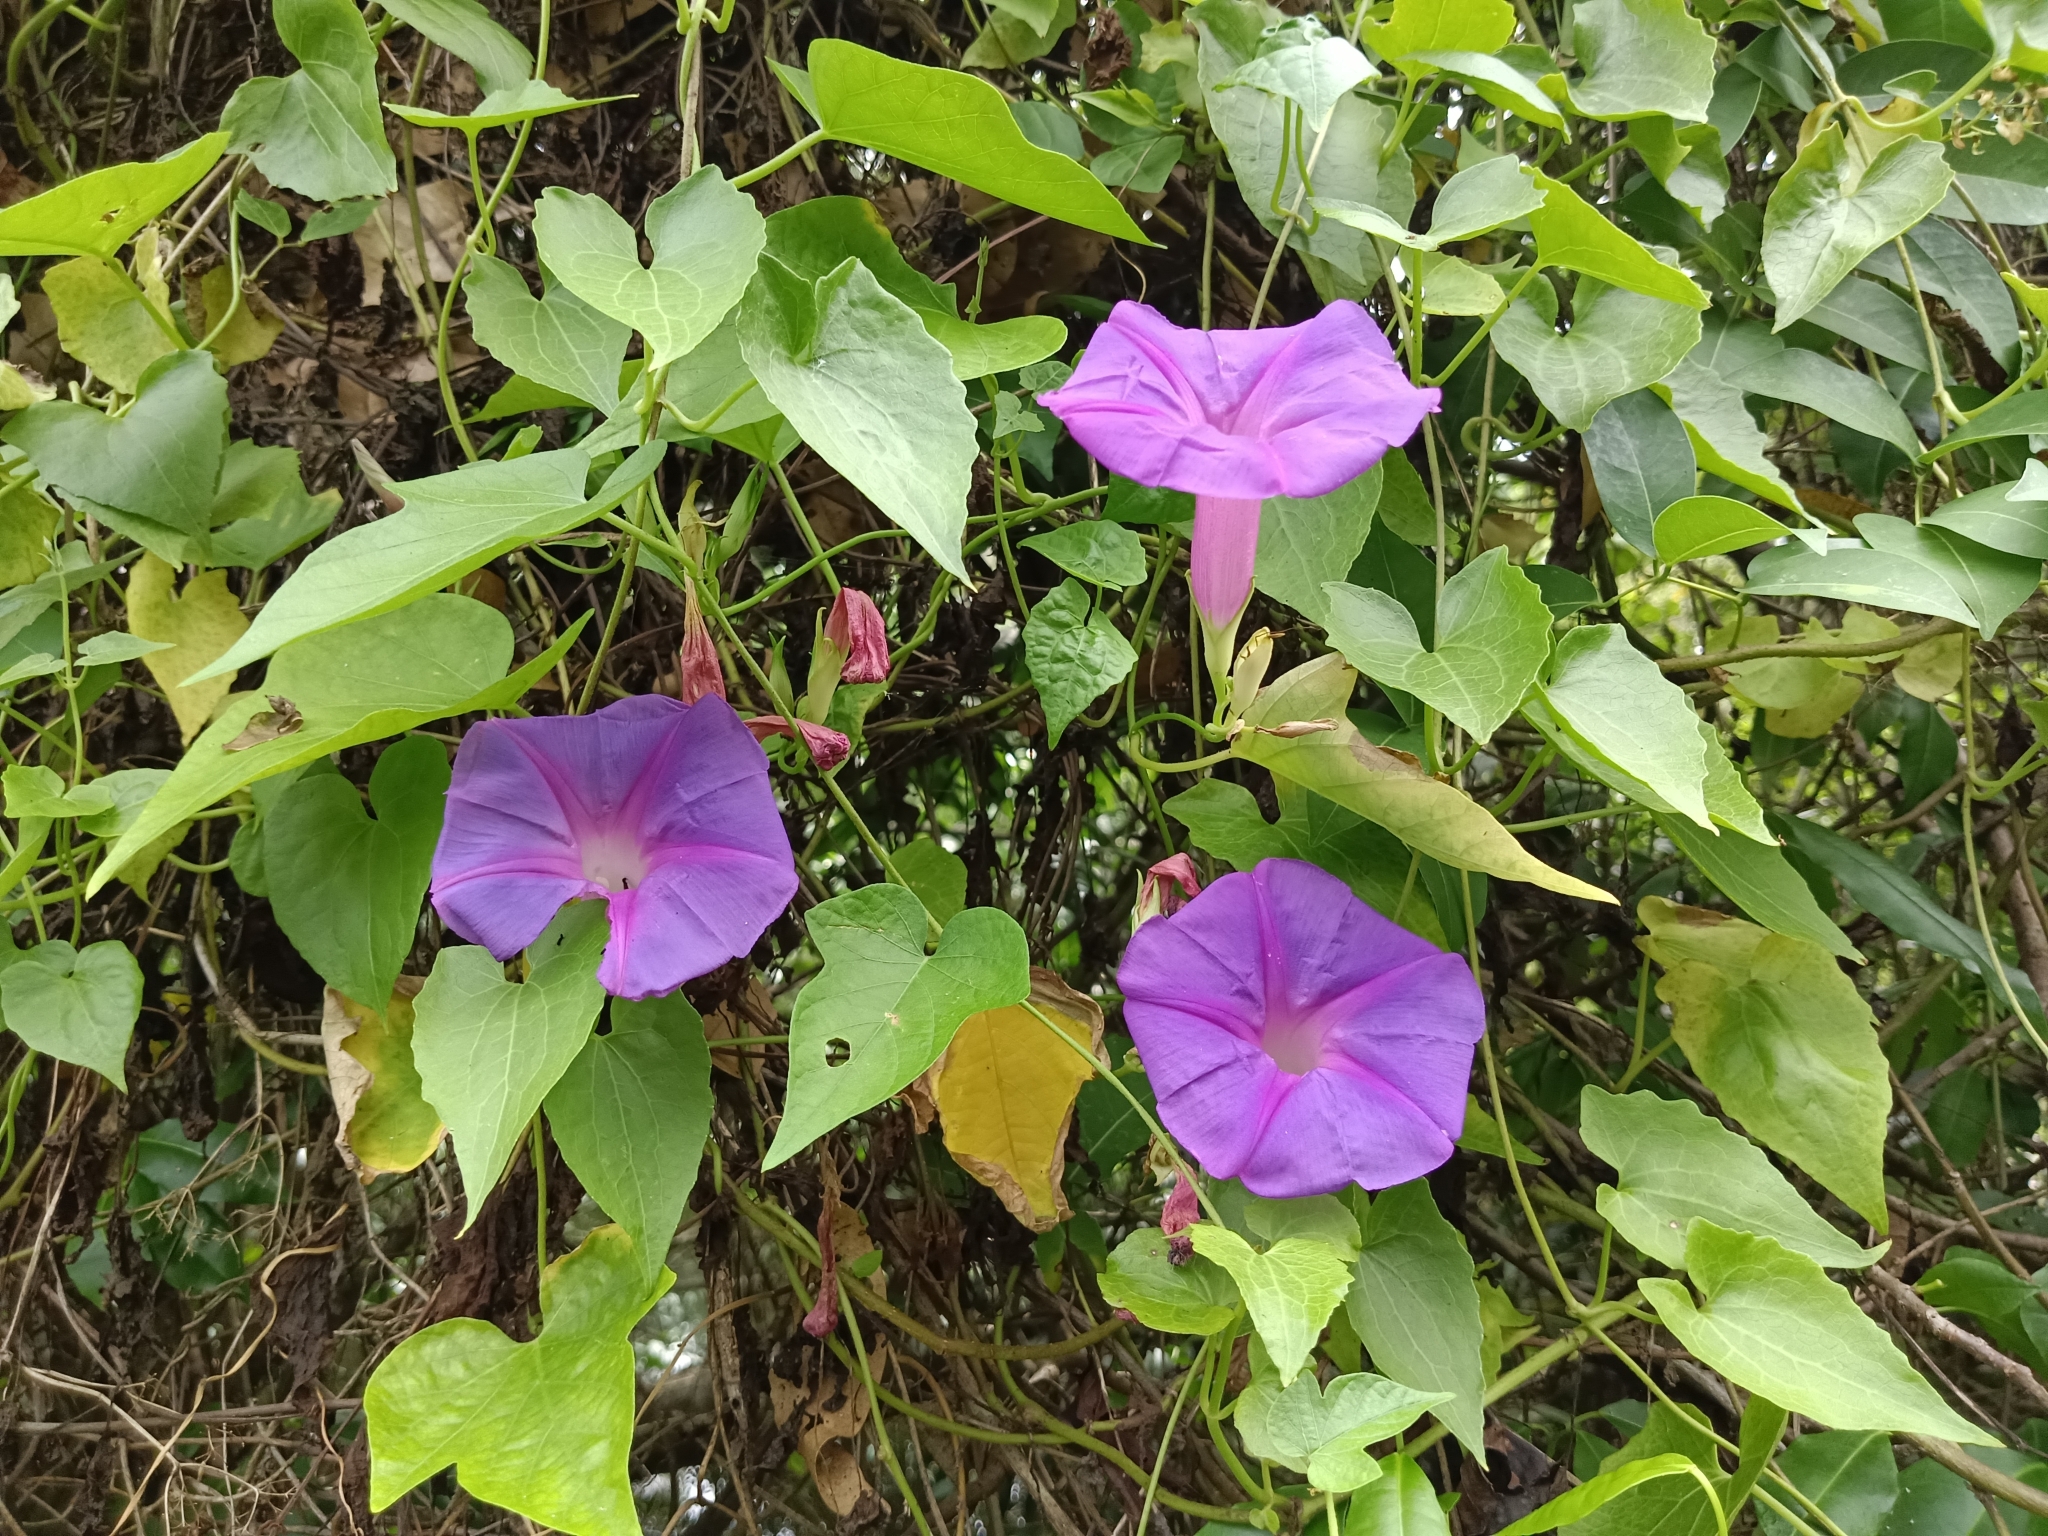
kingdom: Plantae
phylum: Tracheophyta
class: Magnoliopsida
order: Solanales
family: Convolvulaceae
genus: Ipomoea
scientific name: Ipomoea indica
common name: Blue dawnflower
